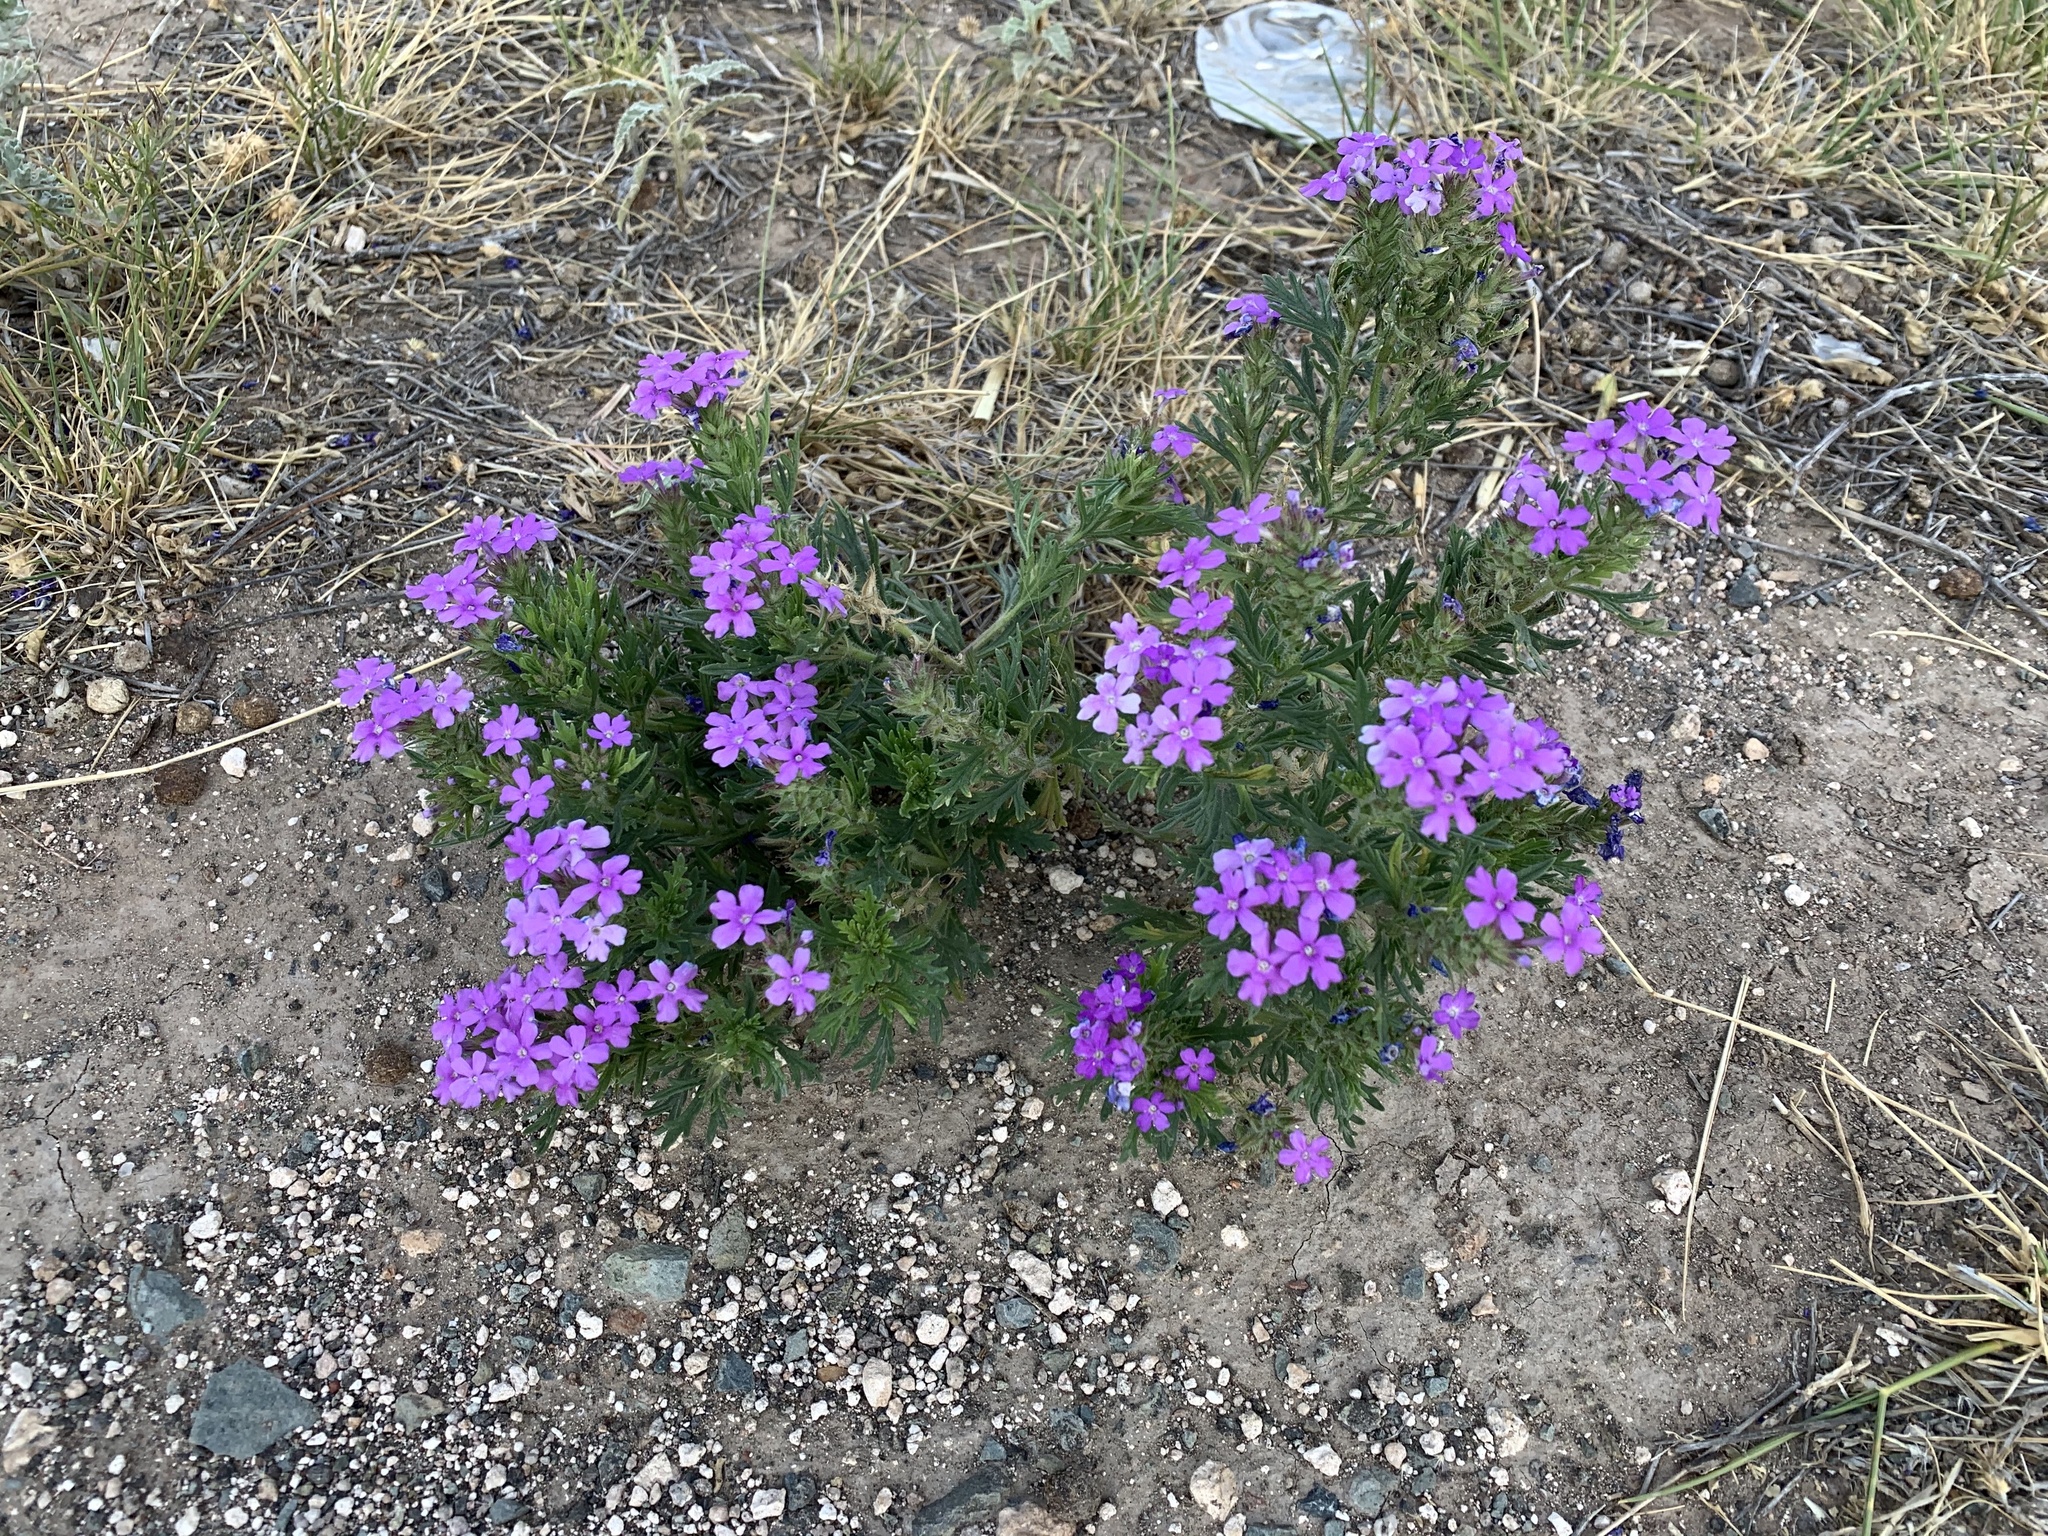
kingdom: Plantae
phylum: Tracheophyta
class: Magnoliopsida
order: Lamiales
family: Verbenaceae
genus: Verbena
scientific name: Verbena bipinnatifida
